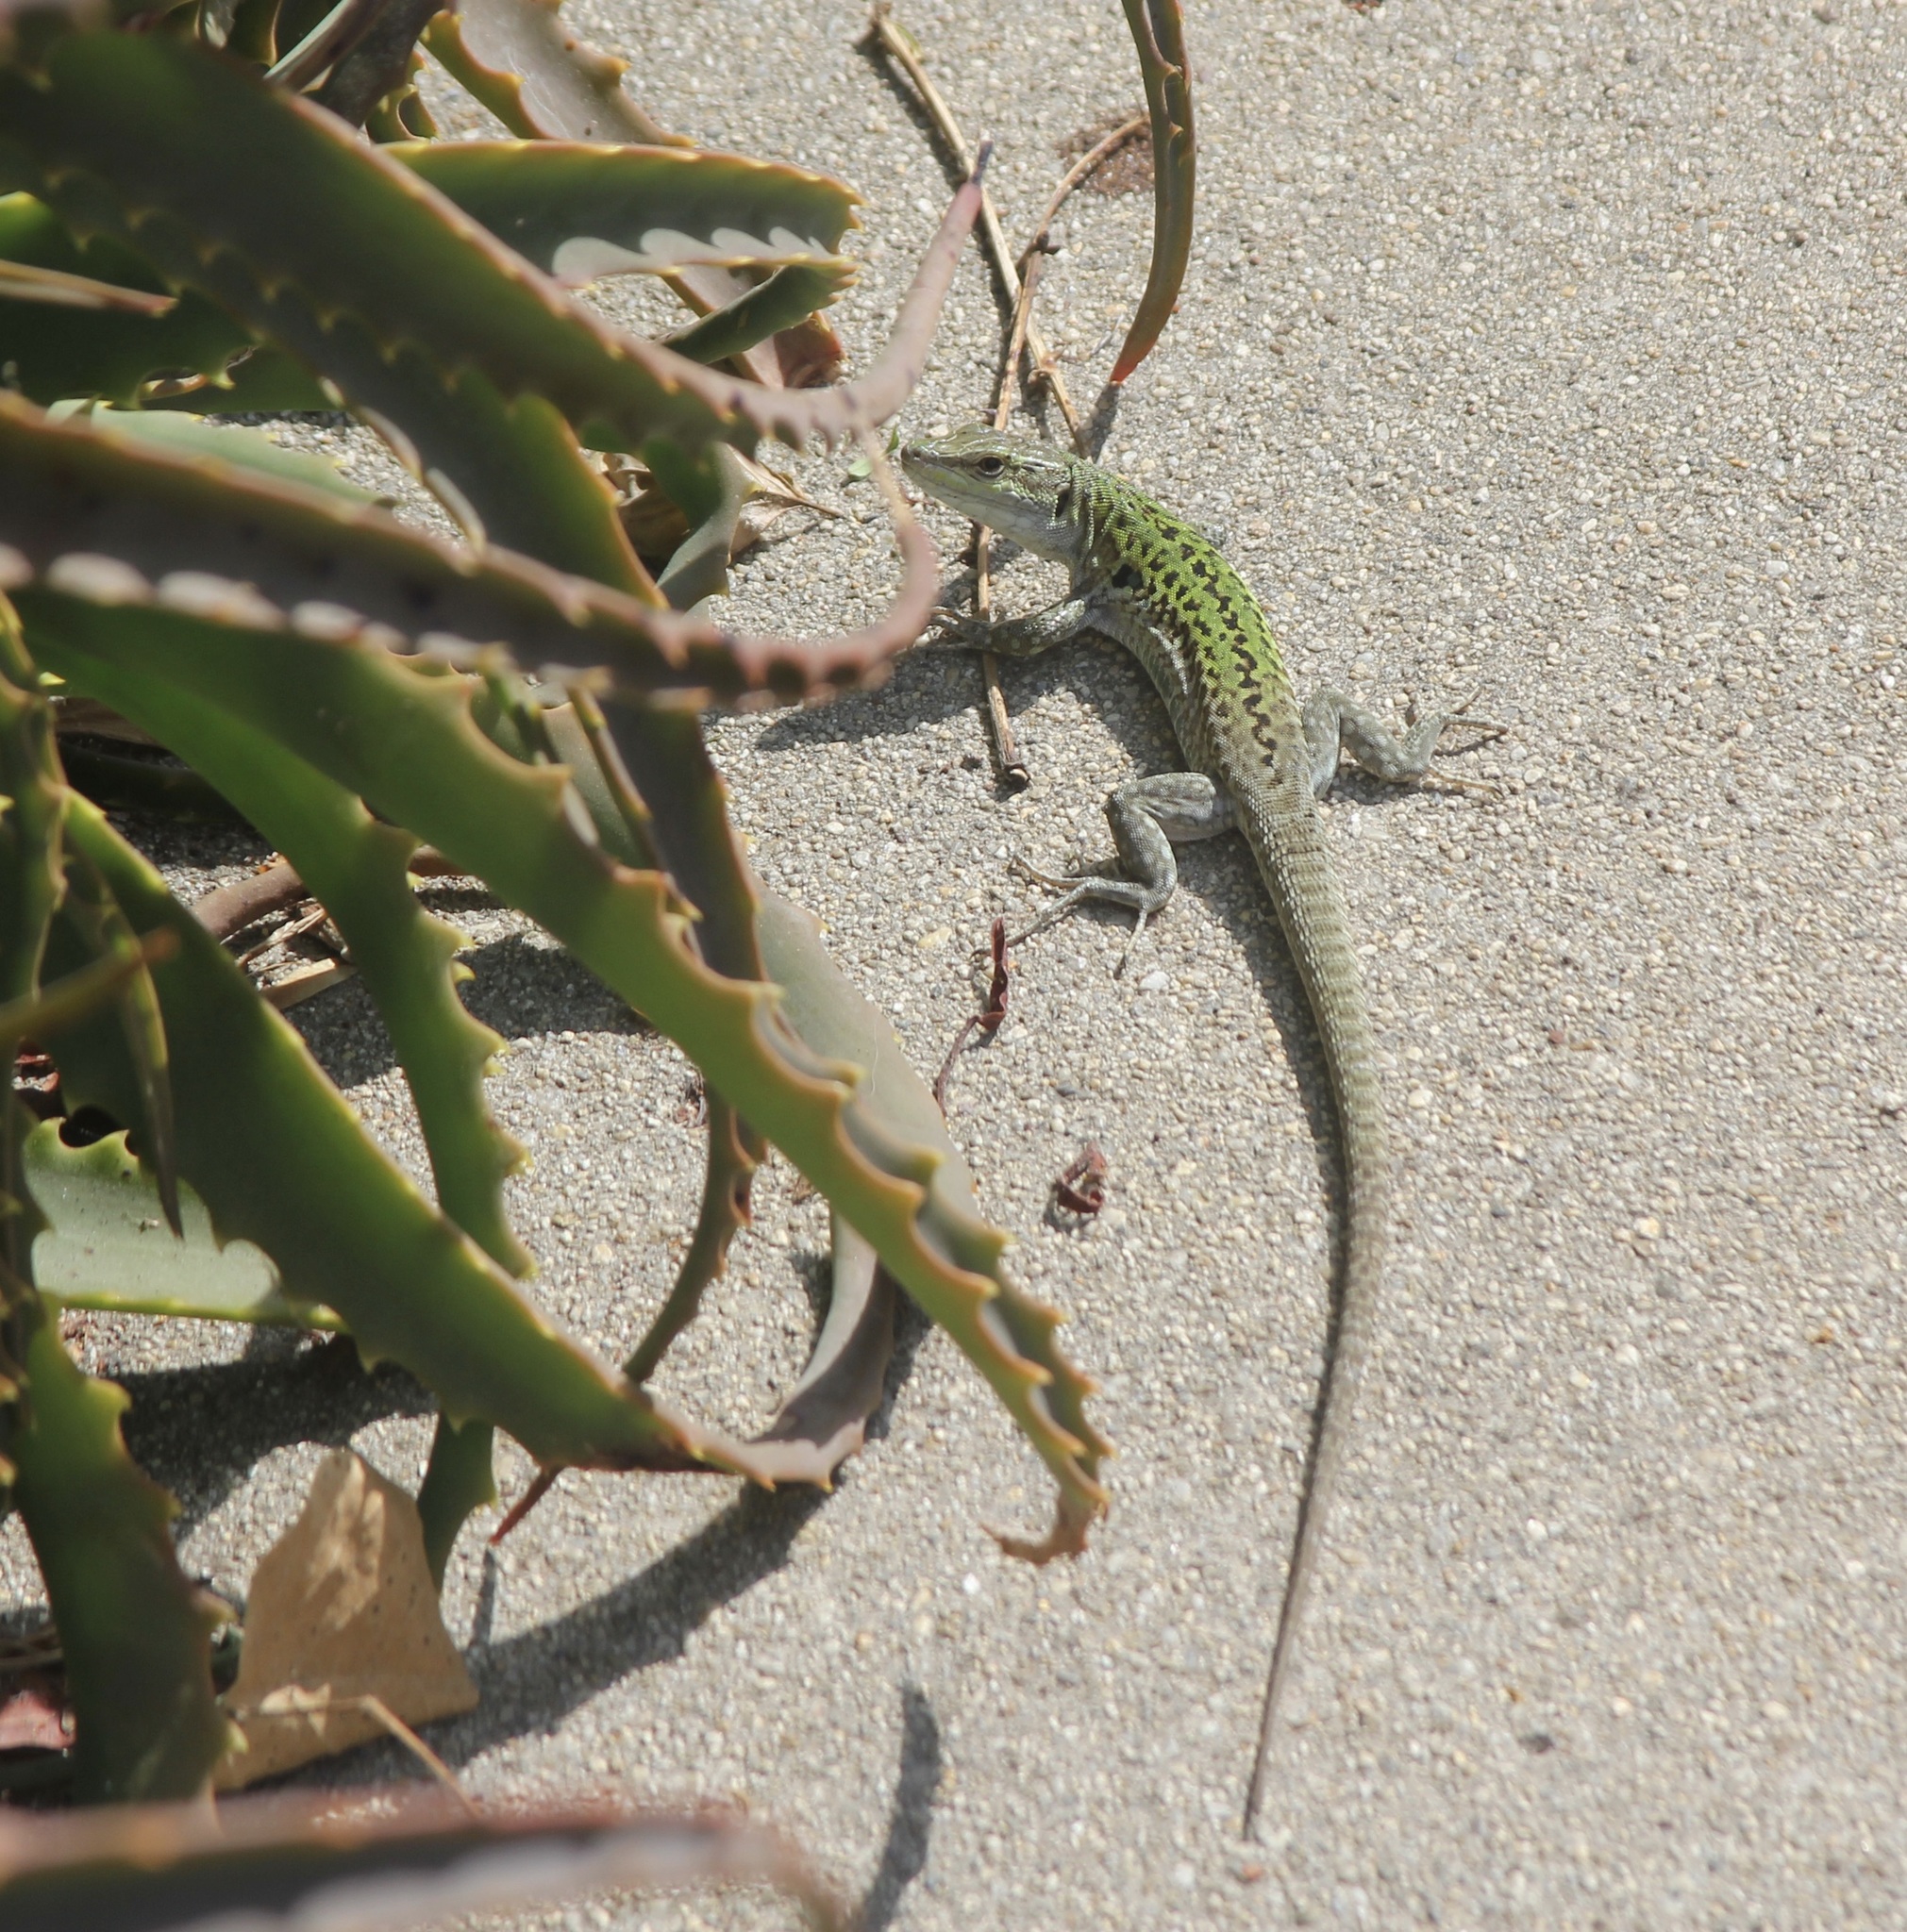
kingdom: Animalia
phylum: Chordata
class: Squamata
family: Lacertidae
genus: Podarcis
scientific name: Podarcis siculus
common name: Italian wall lizard
